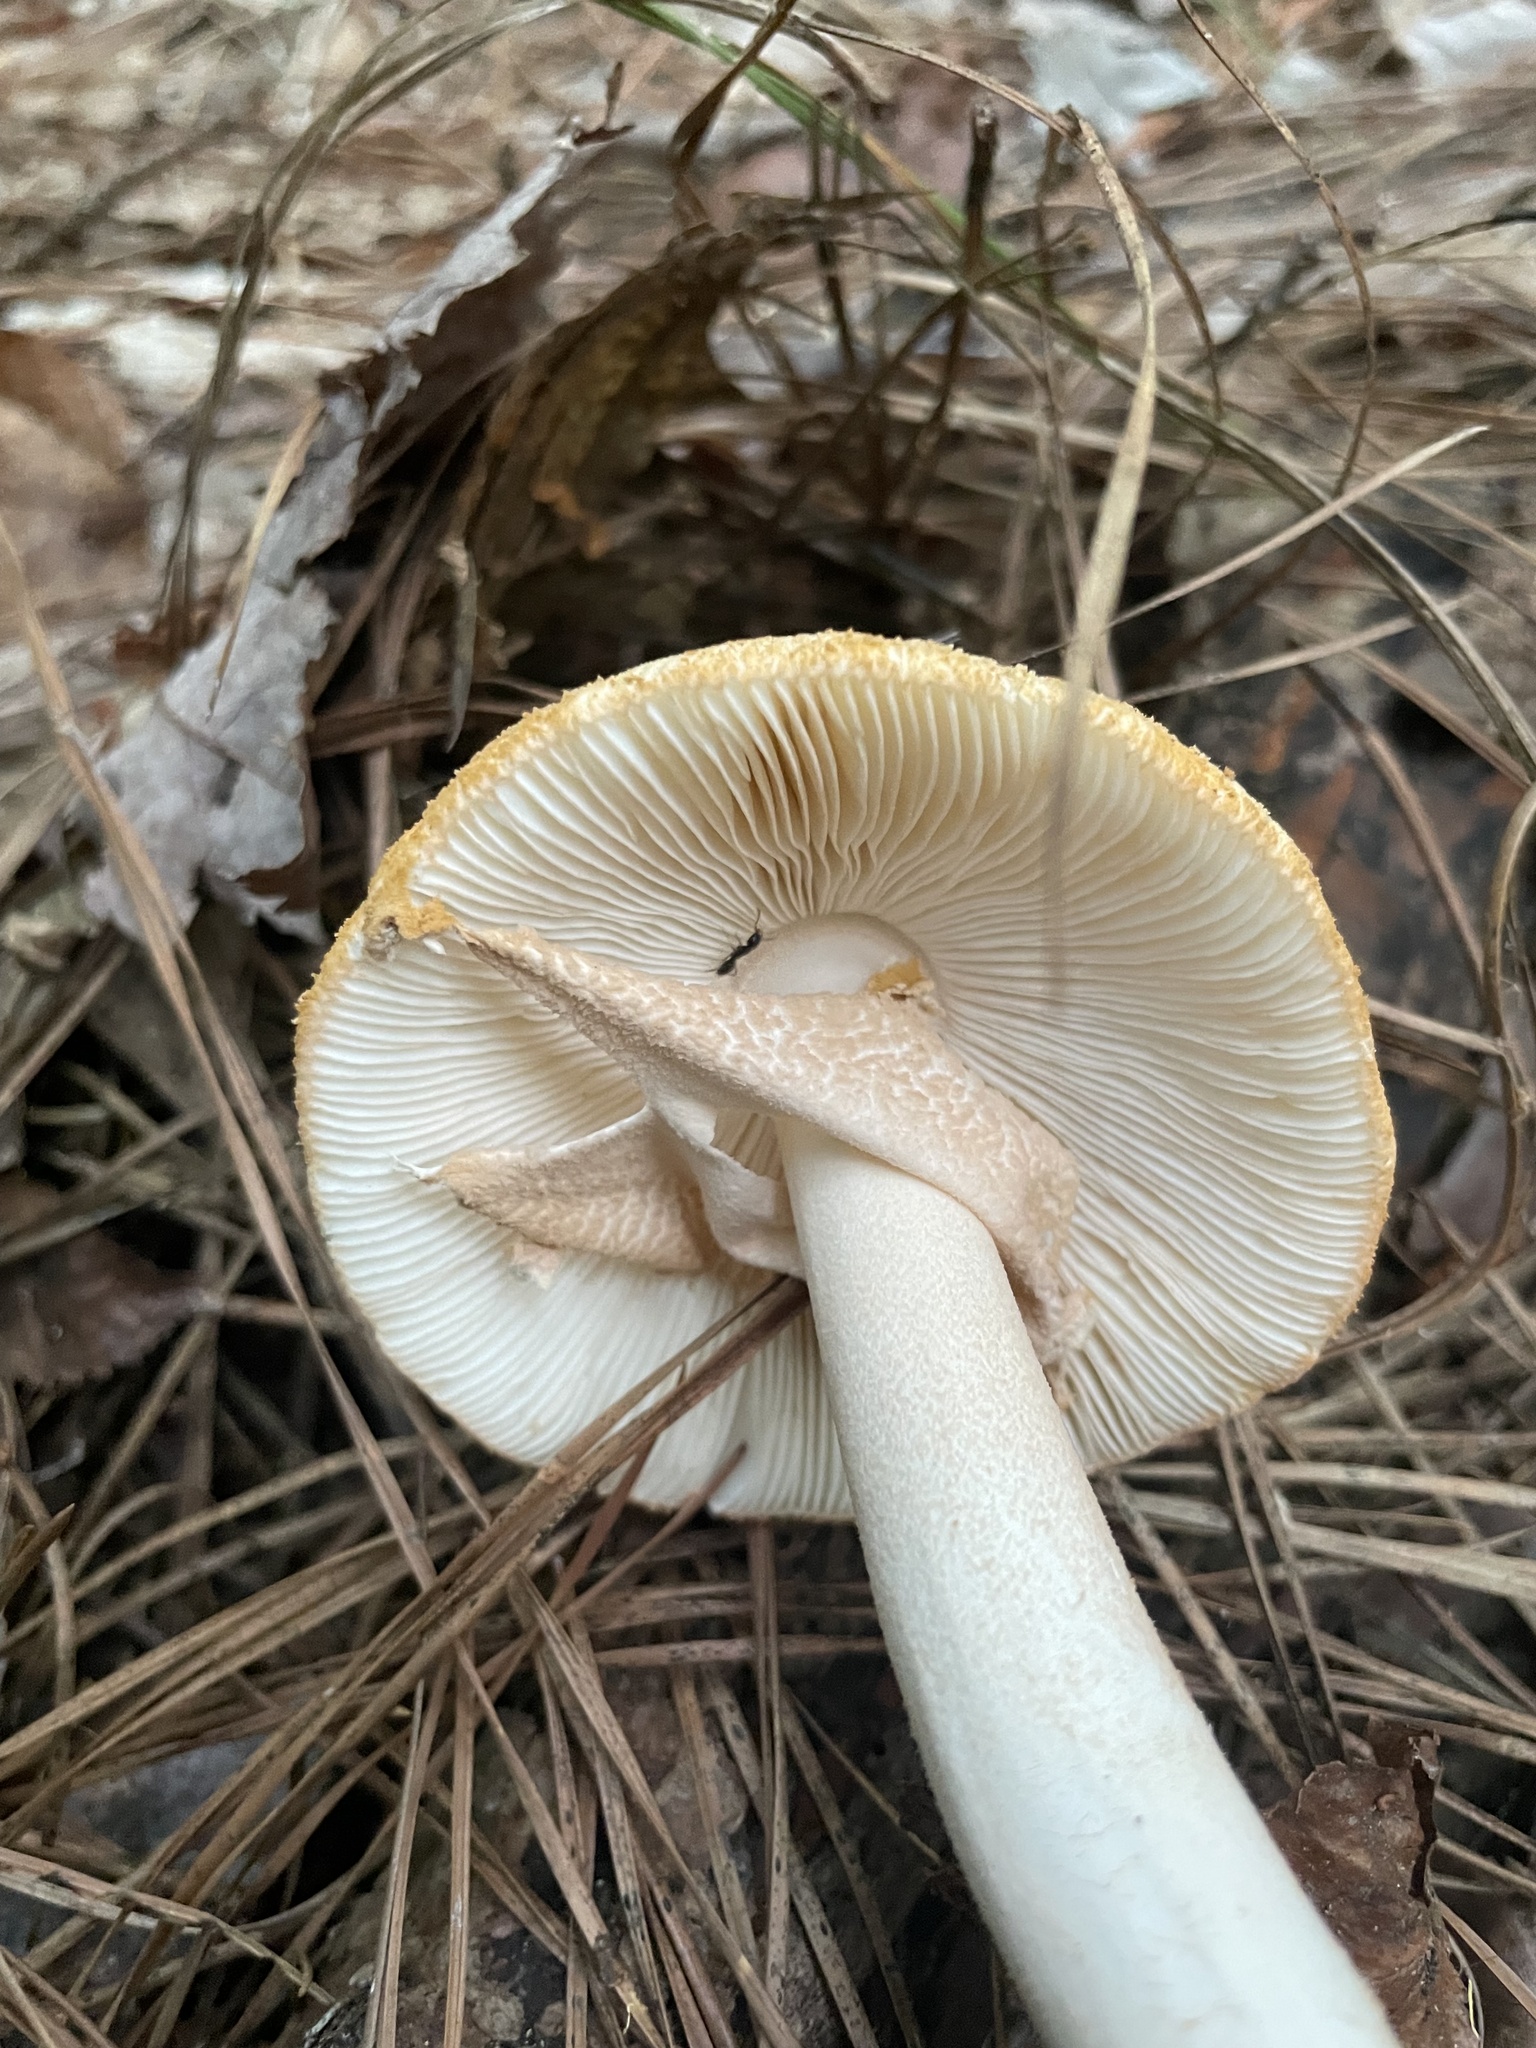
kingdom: Fungi
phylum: Basidiomycota
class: Agaricomycetes
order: Agaricales
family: Amanitaceae
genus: Amanita
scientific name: Amanita roseotincta
